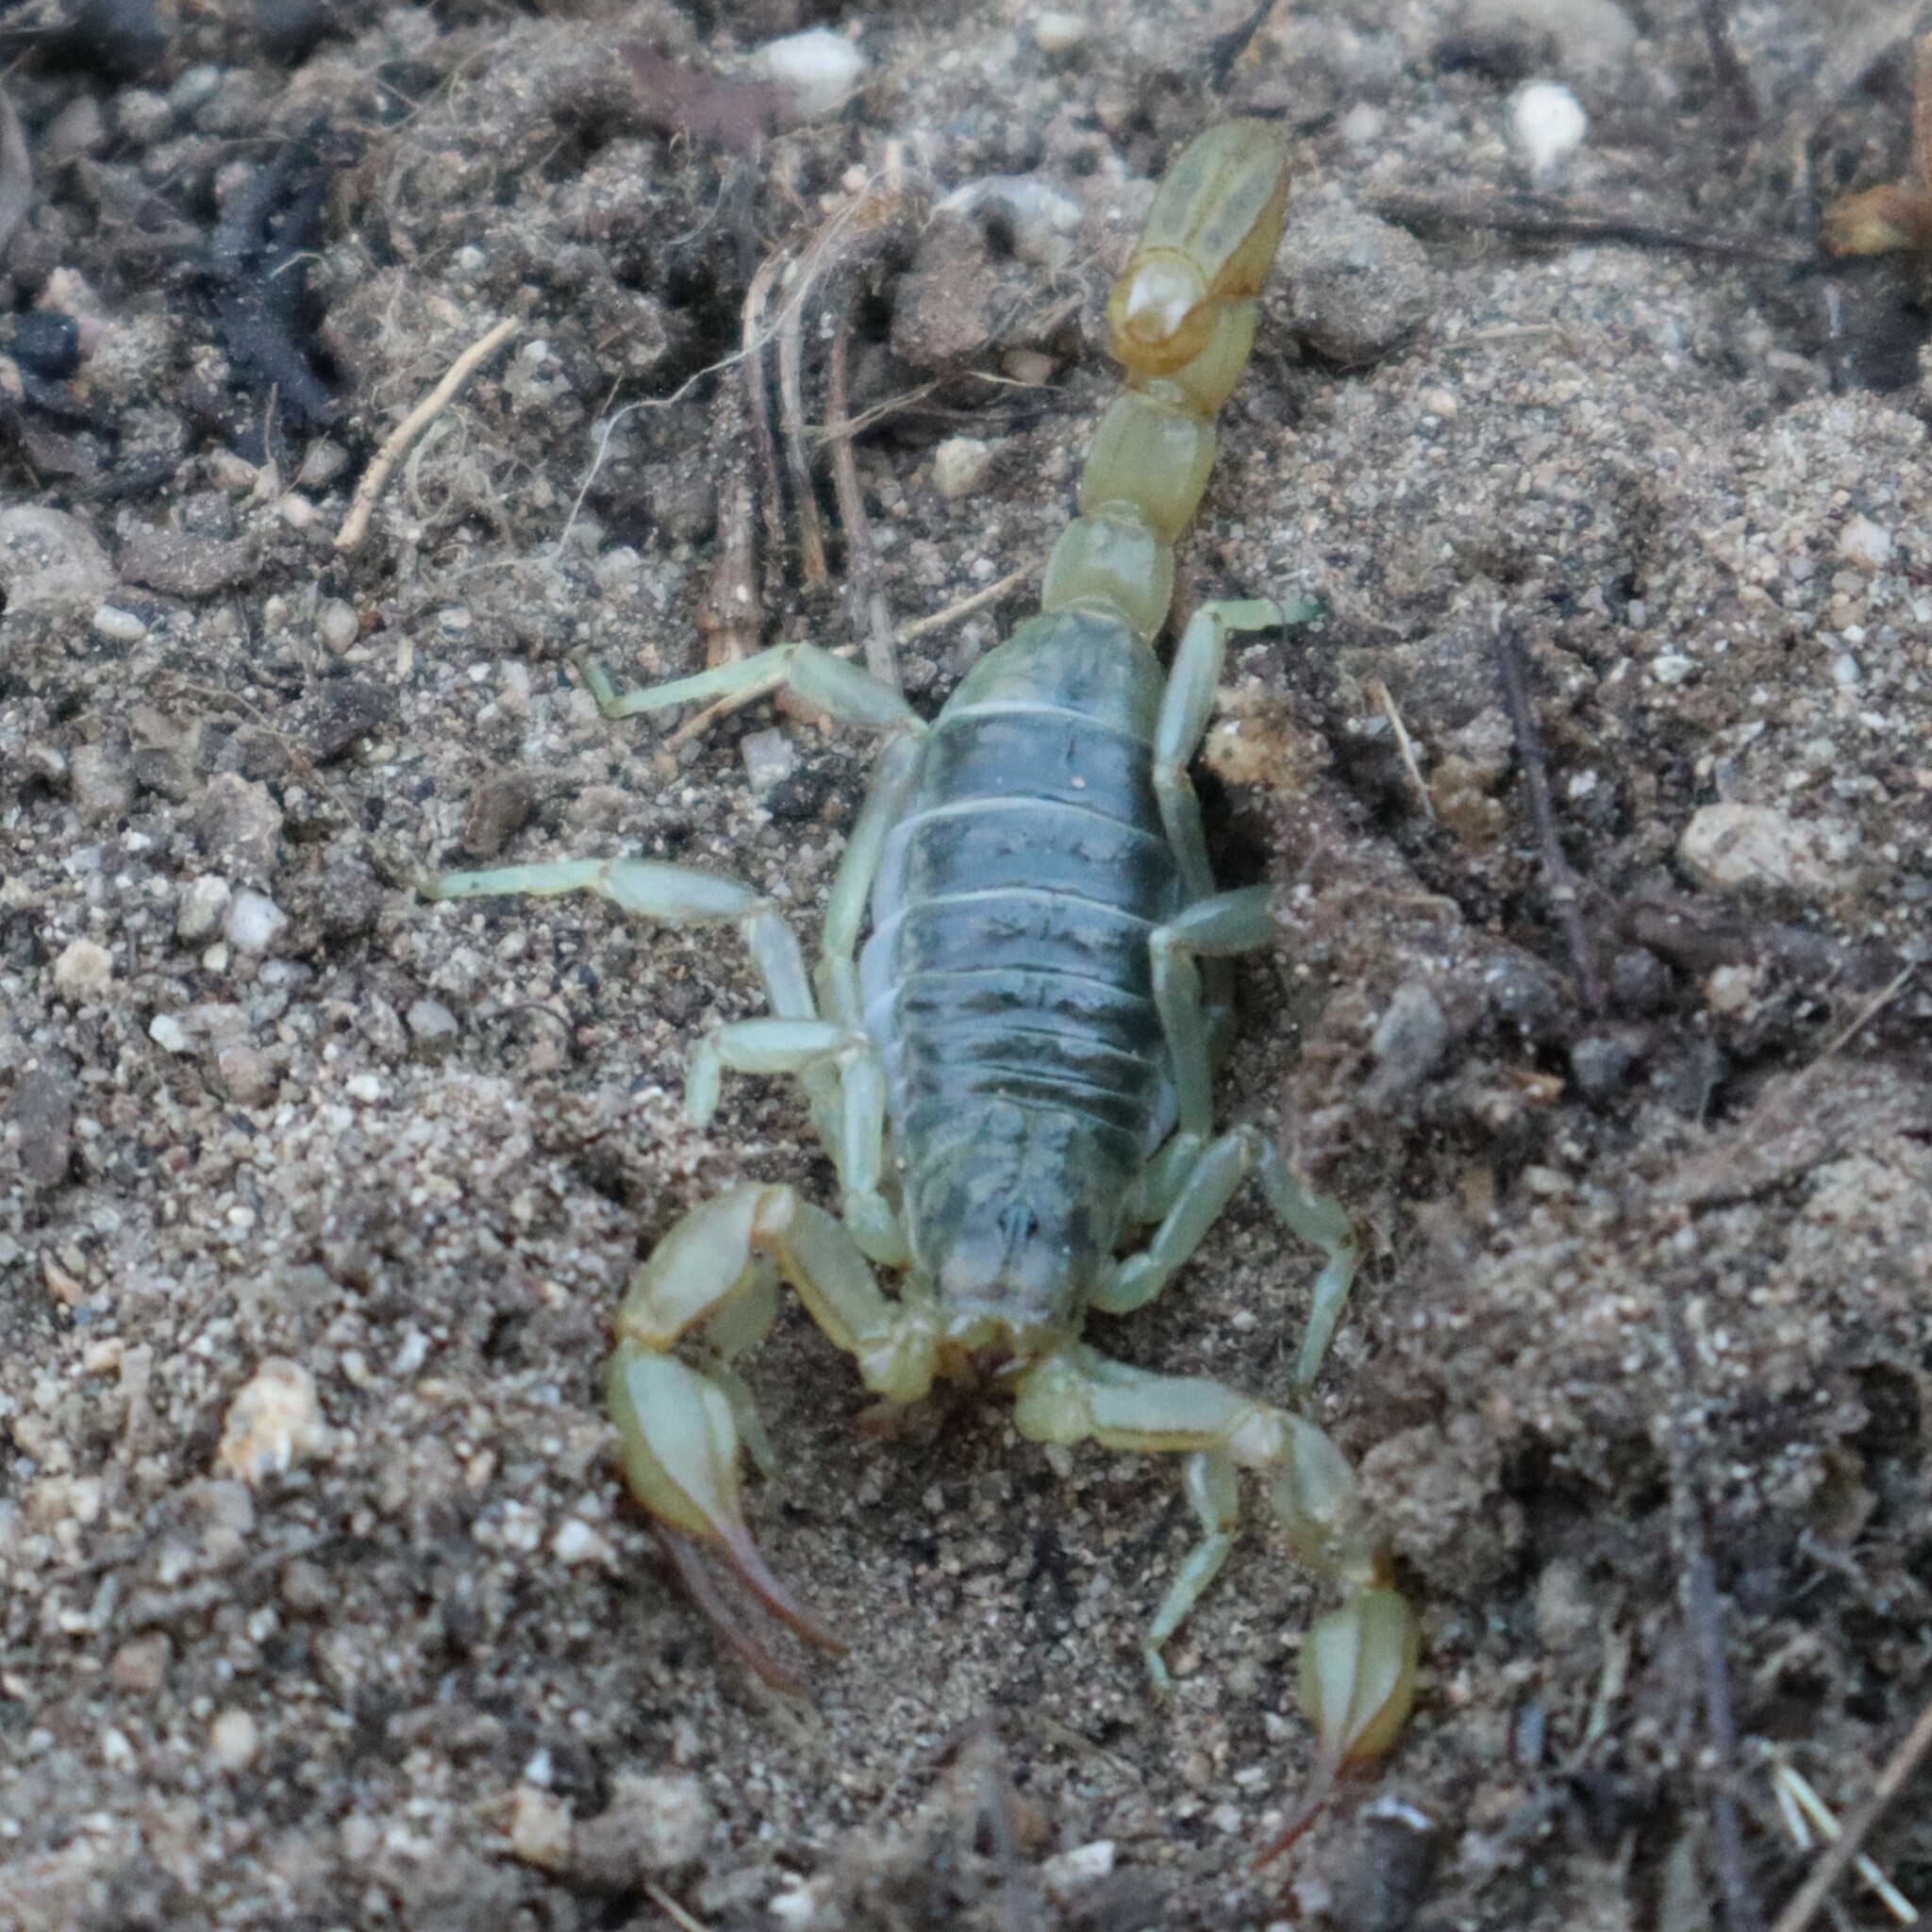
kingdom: Animalia
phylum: Arthropoda
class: Arachnida
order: Scorpiones
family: Vaejovidae
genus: Paruroctonus
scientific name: Paruroctonus silvestrii
